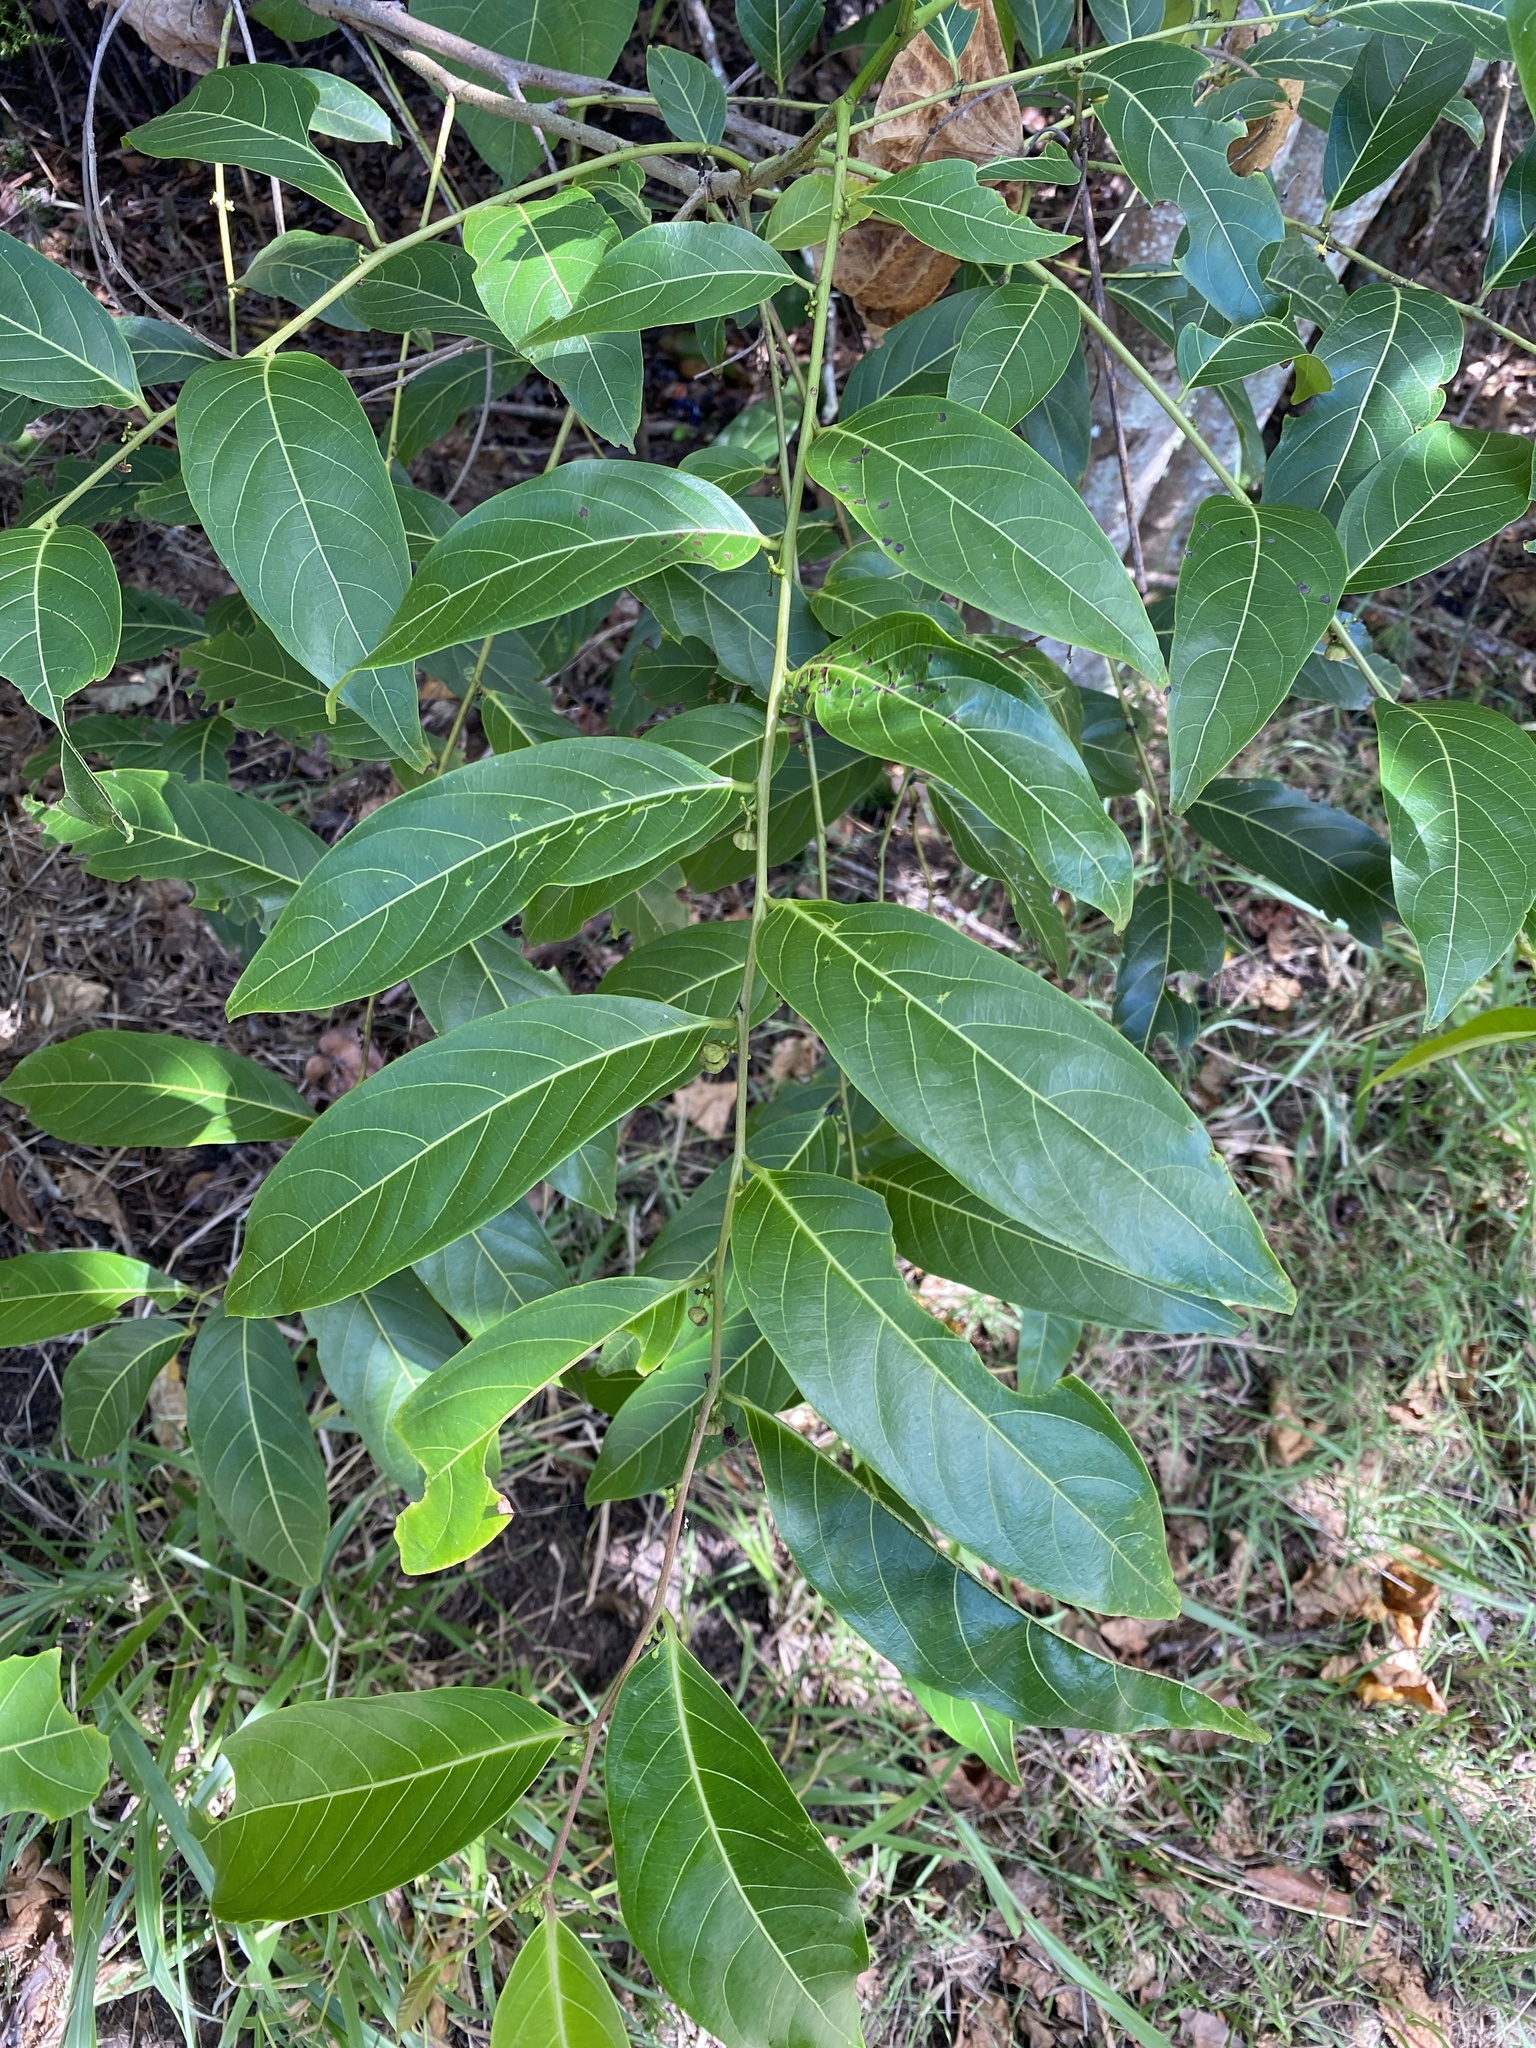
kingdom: Plantae
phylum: Tracheophyta
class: Magnoliopsida
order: Malpighiales
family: Phyllanthaceae
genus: Glochidion
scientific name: Glochidion zeylanicum
